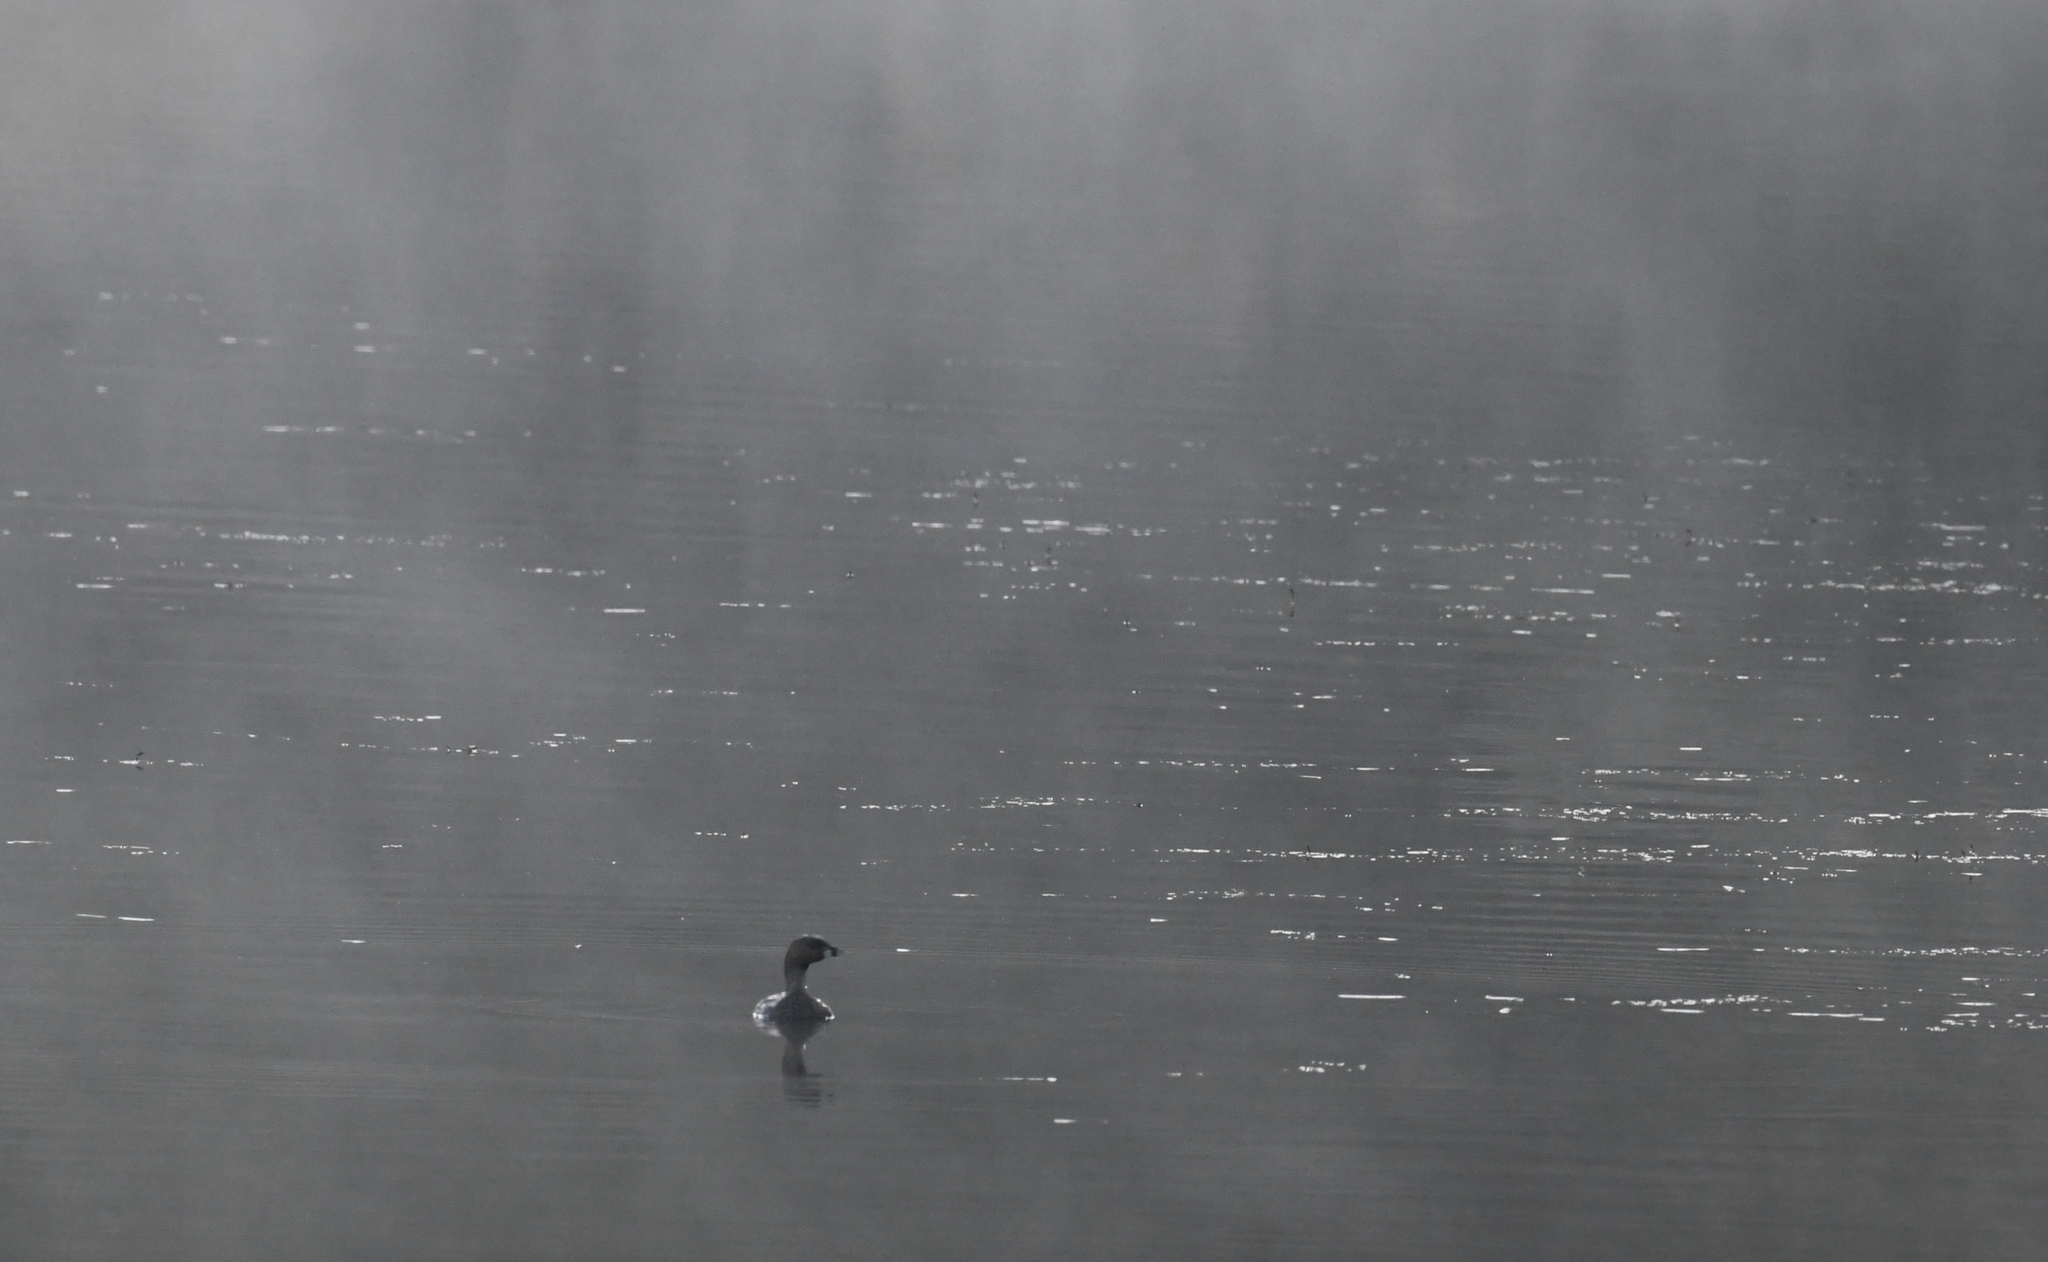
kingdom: Animalia
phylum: Chordata
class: Aves
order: Podicipediformes
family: Podicipedidae
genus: Podilymbus
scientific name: Podilymbus podiceps
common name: Pied-billed grebe
